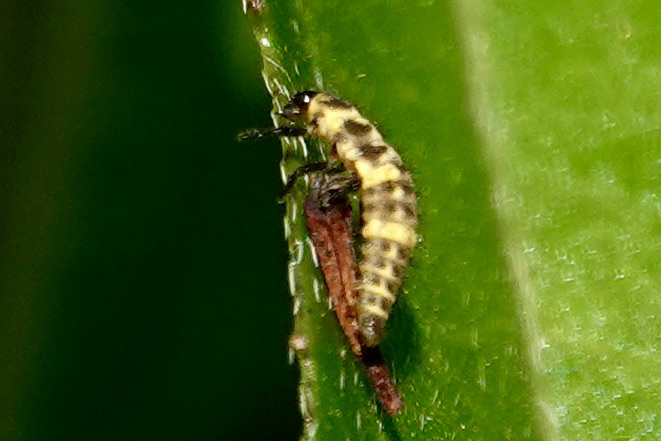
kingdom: Animalia
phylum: Arthropoda
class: Insecta
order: Coleoptera
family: Coccinellidae
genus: Coleomegilla
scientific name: Coleomegilla maculata
